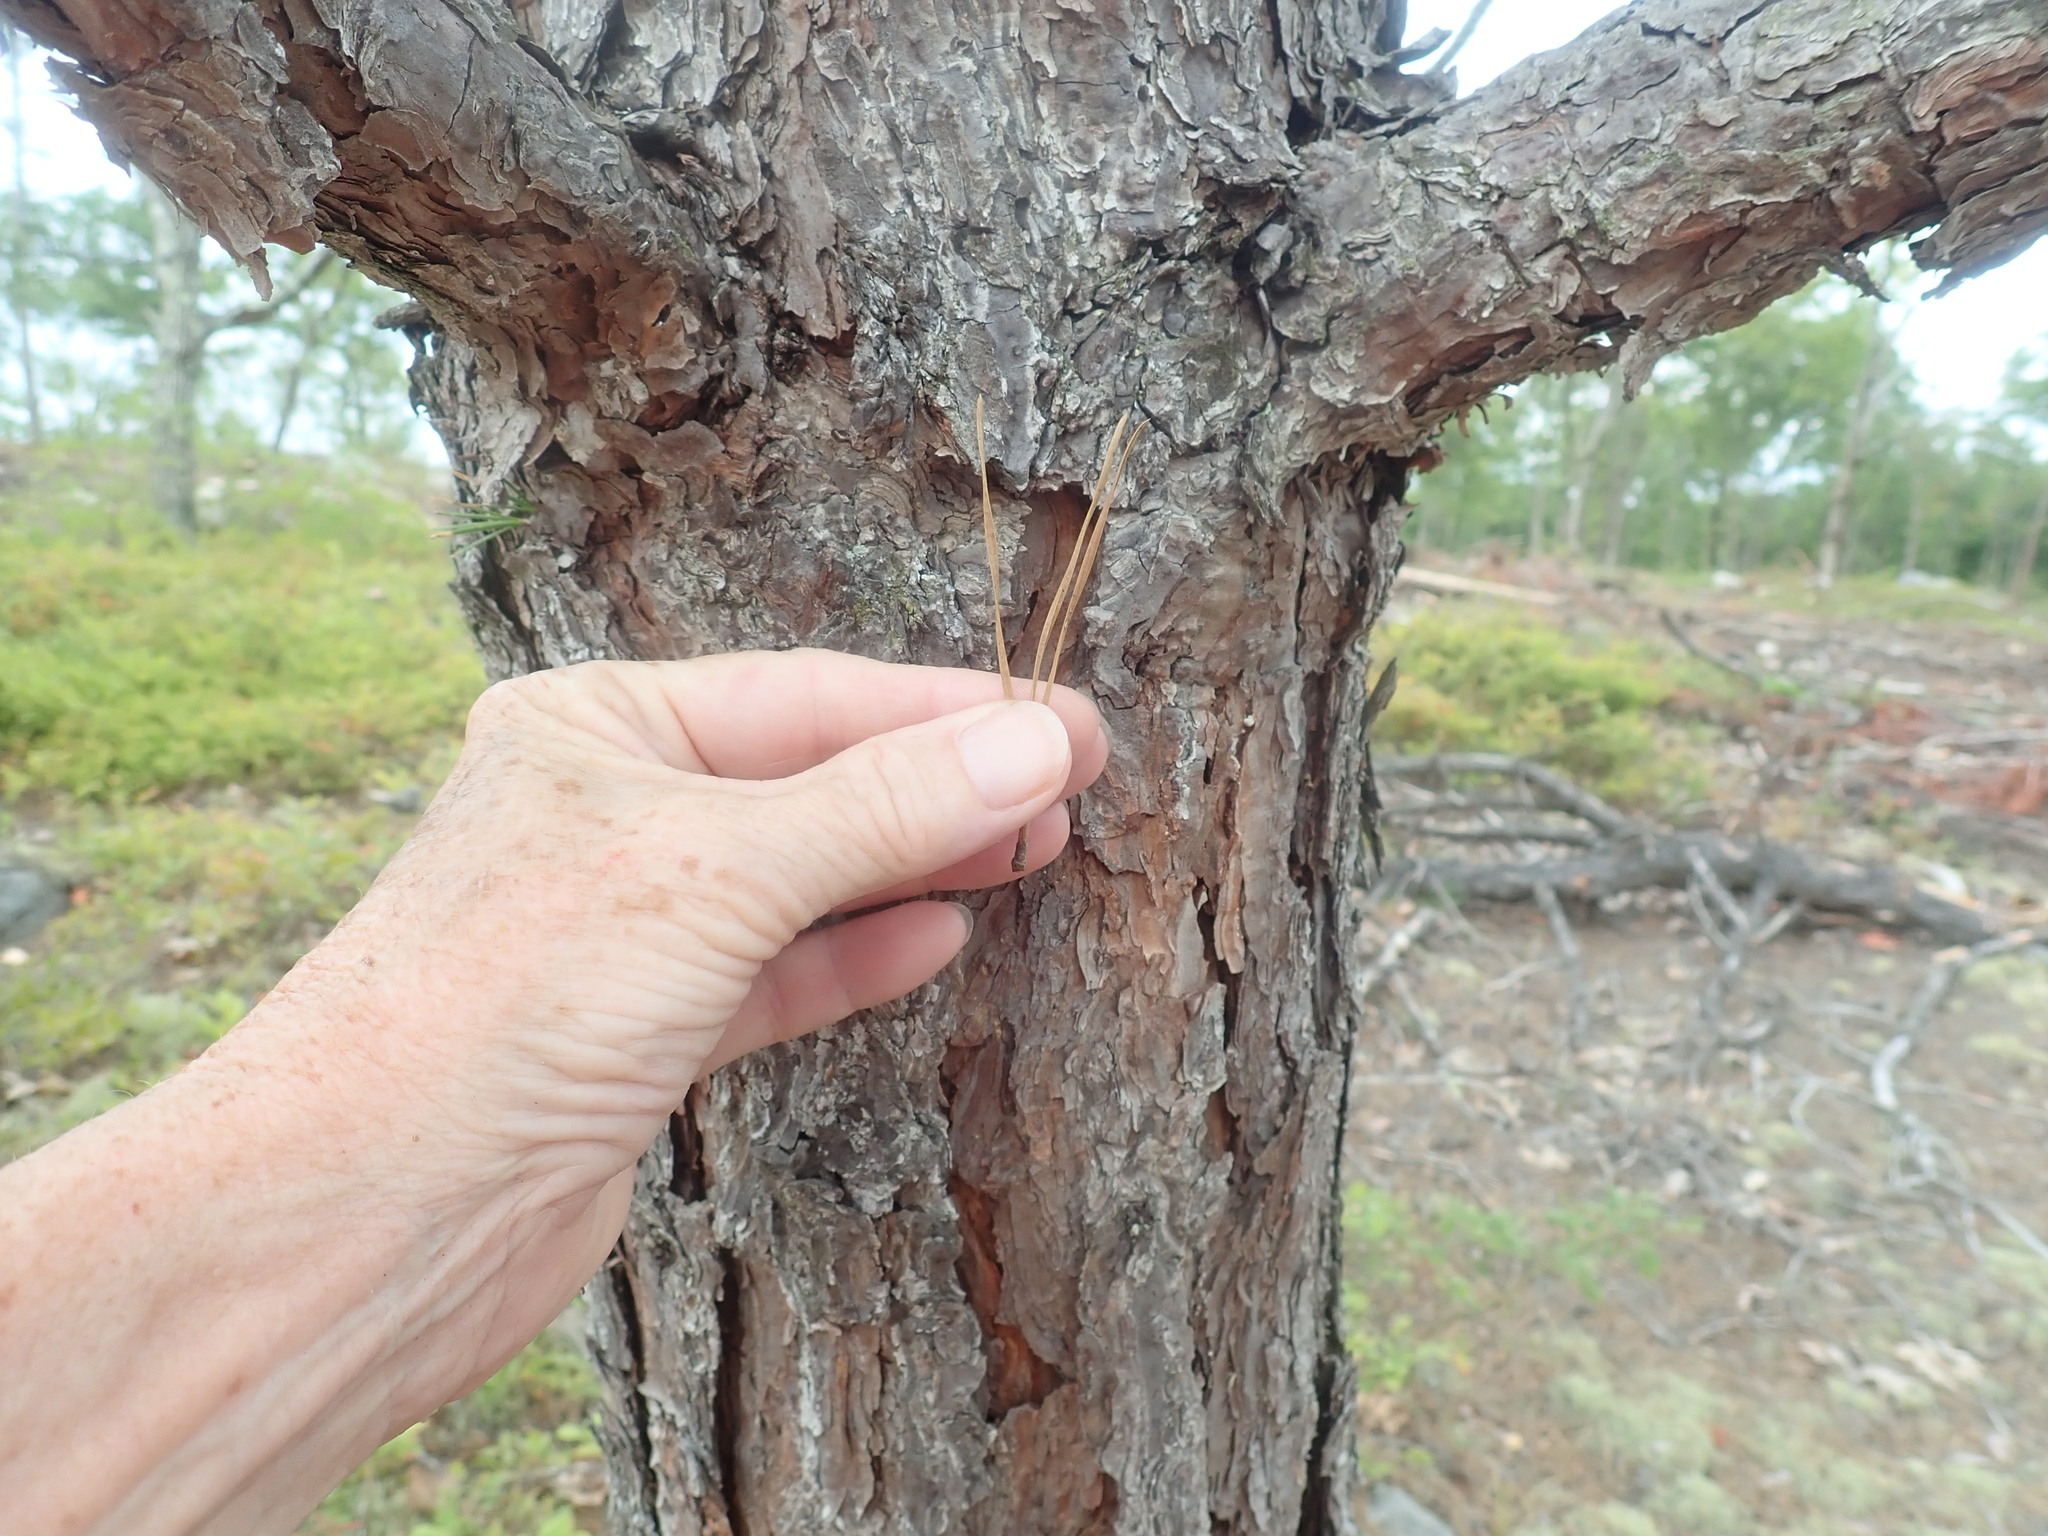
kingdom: Plantae
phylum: Tracheophyta
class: Pinopsida
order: Pinales
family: Pinaceae
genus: Pinus
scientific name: Pinus rigida
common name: Pitch pine
